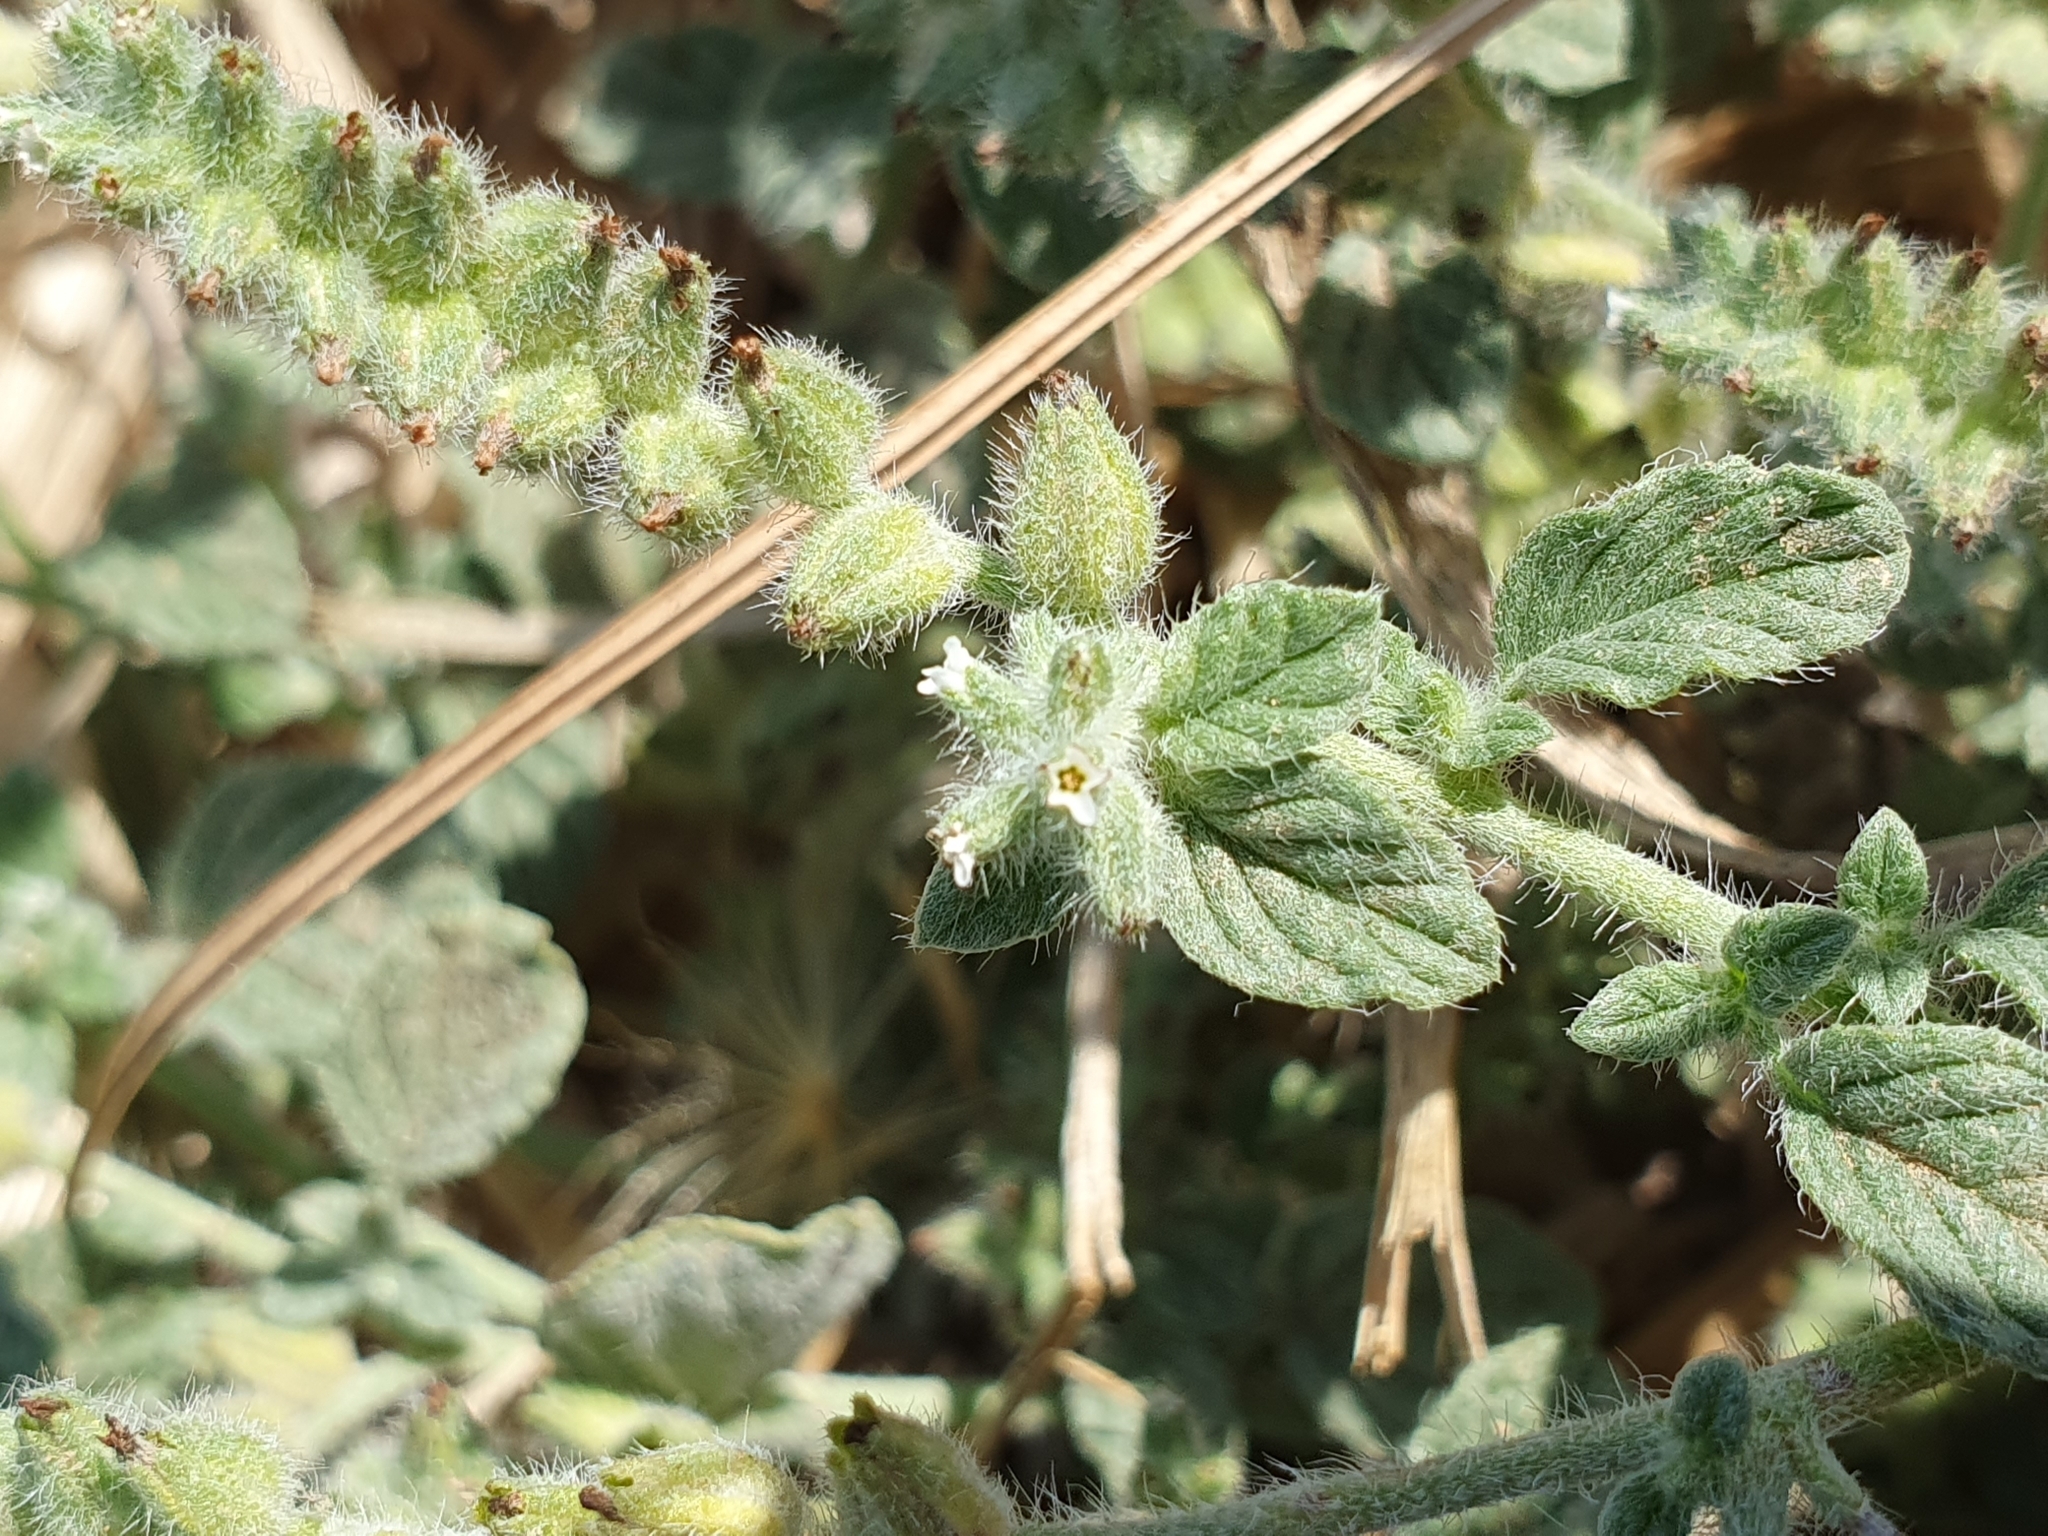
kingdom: Plantae
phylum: Tracheophyta
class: Magnoliopsida
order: Boraginales
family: Heliotropiaceae
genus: Heliotropium
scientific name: Heliotropium supinum
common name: Dwarf heliotrope
